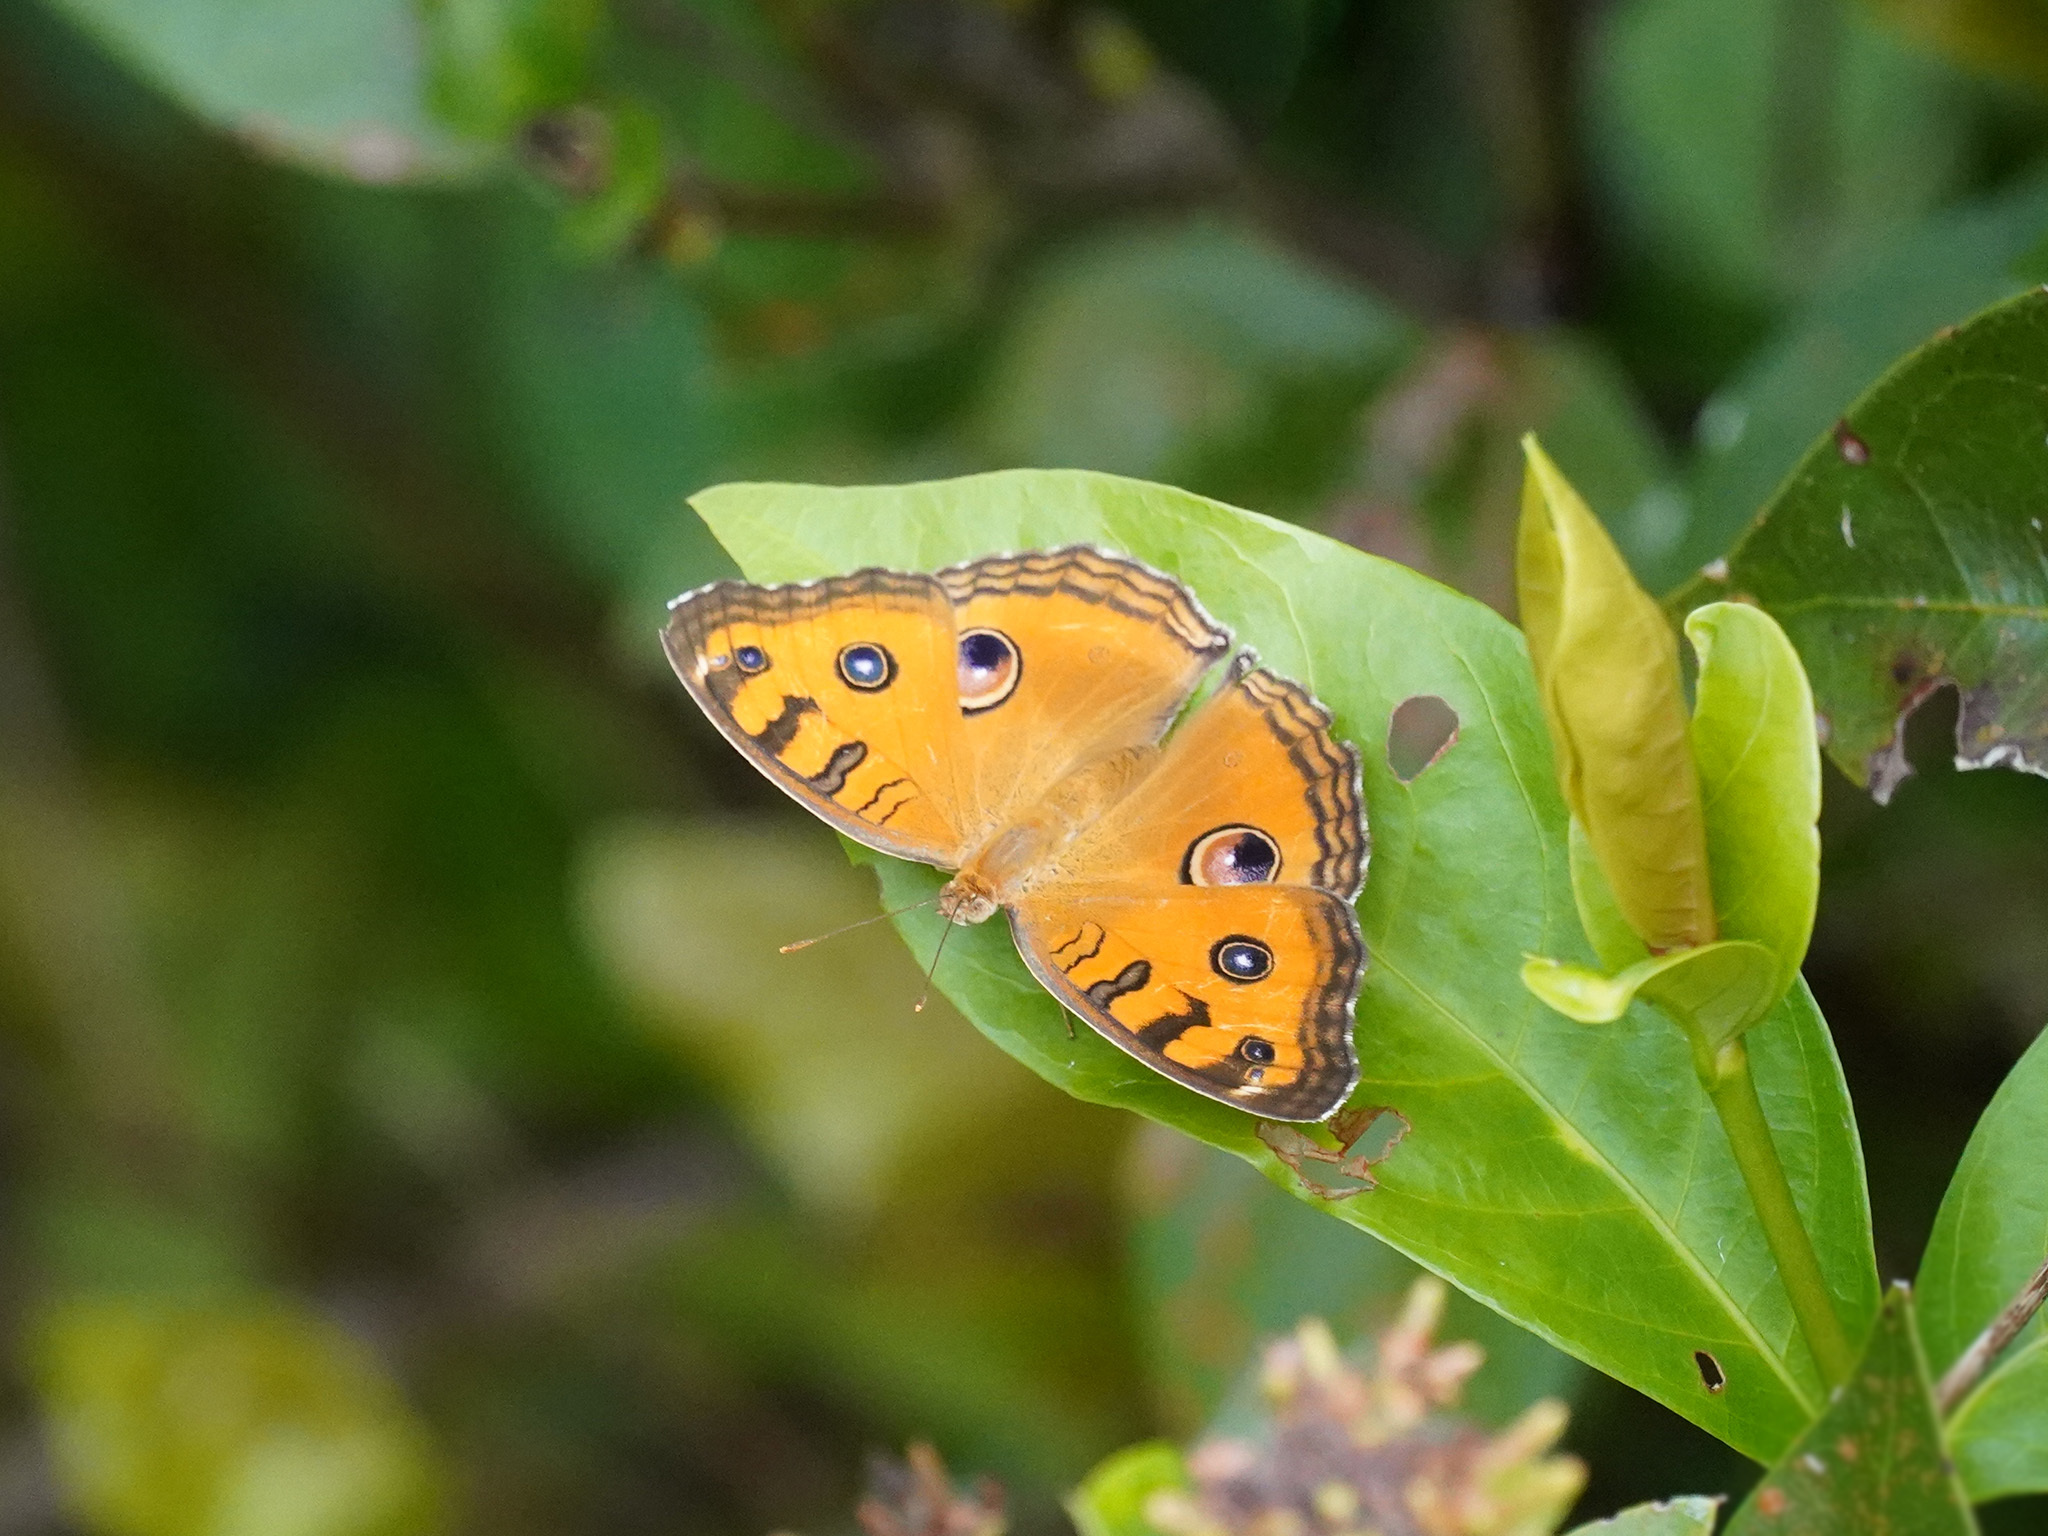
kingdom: Animalia
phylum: Arthropoda
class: Insecta
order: Lepidoptera
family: Nymphalidae
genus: Junonia
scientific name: Junonia almana
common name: Peacock pansy
